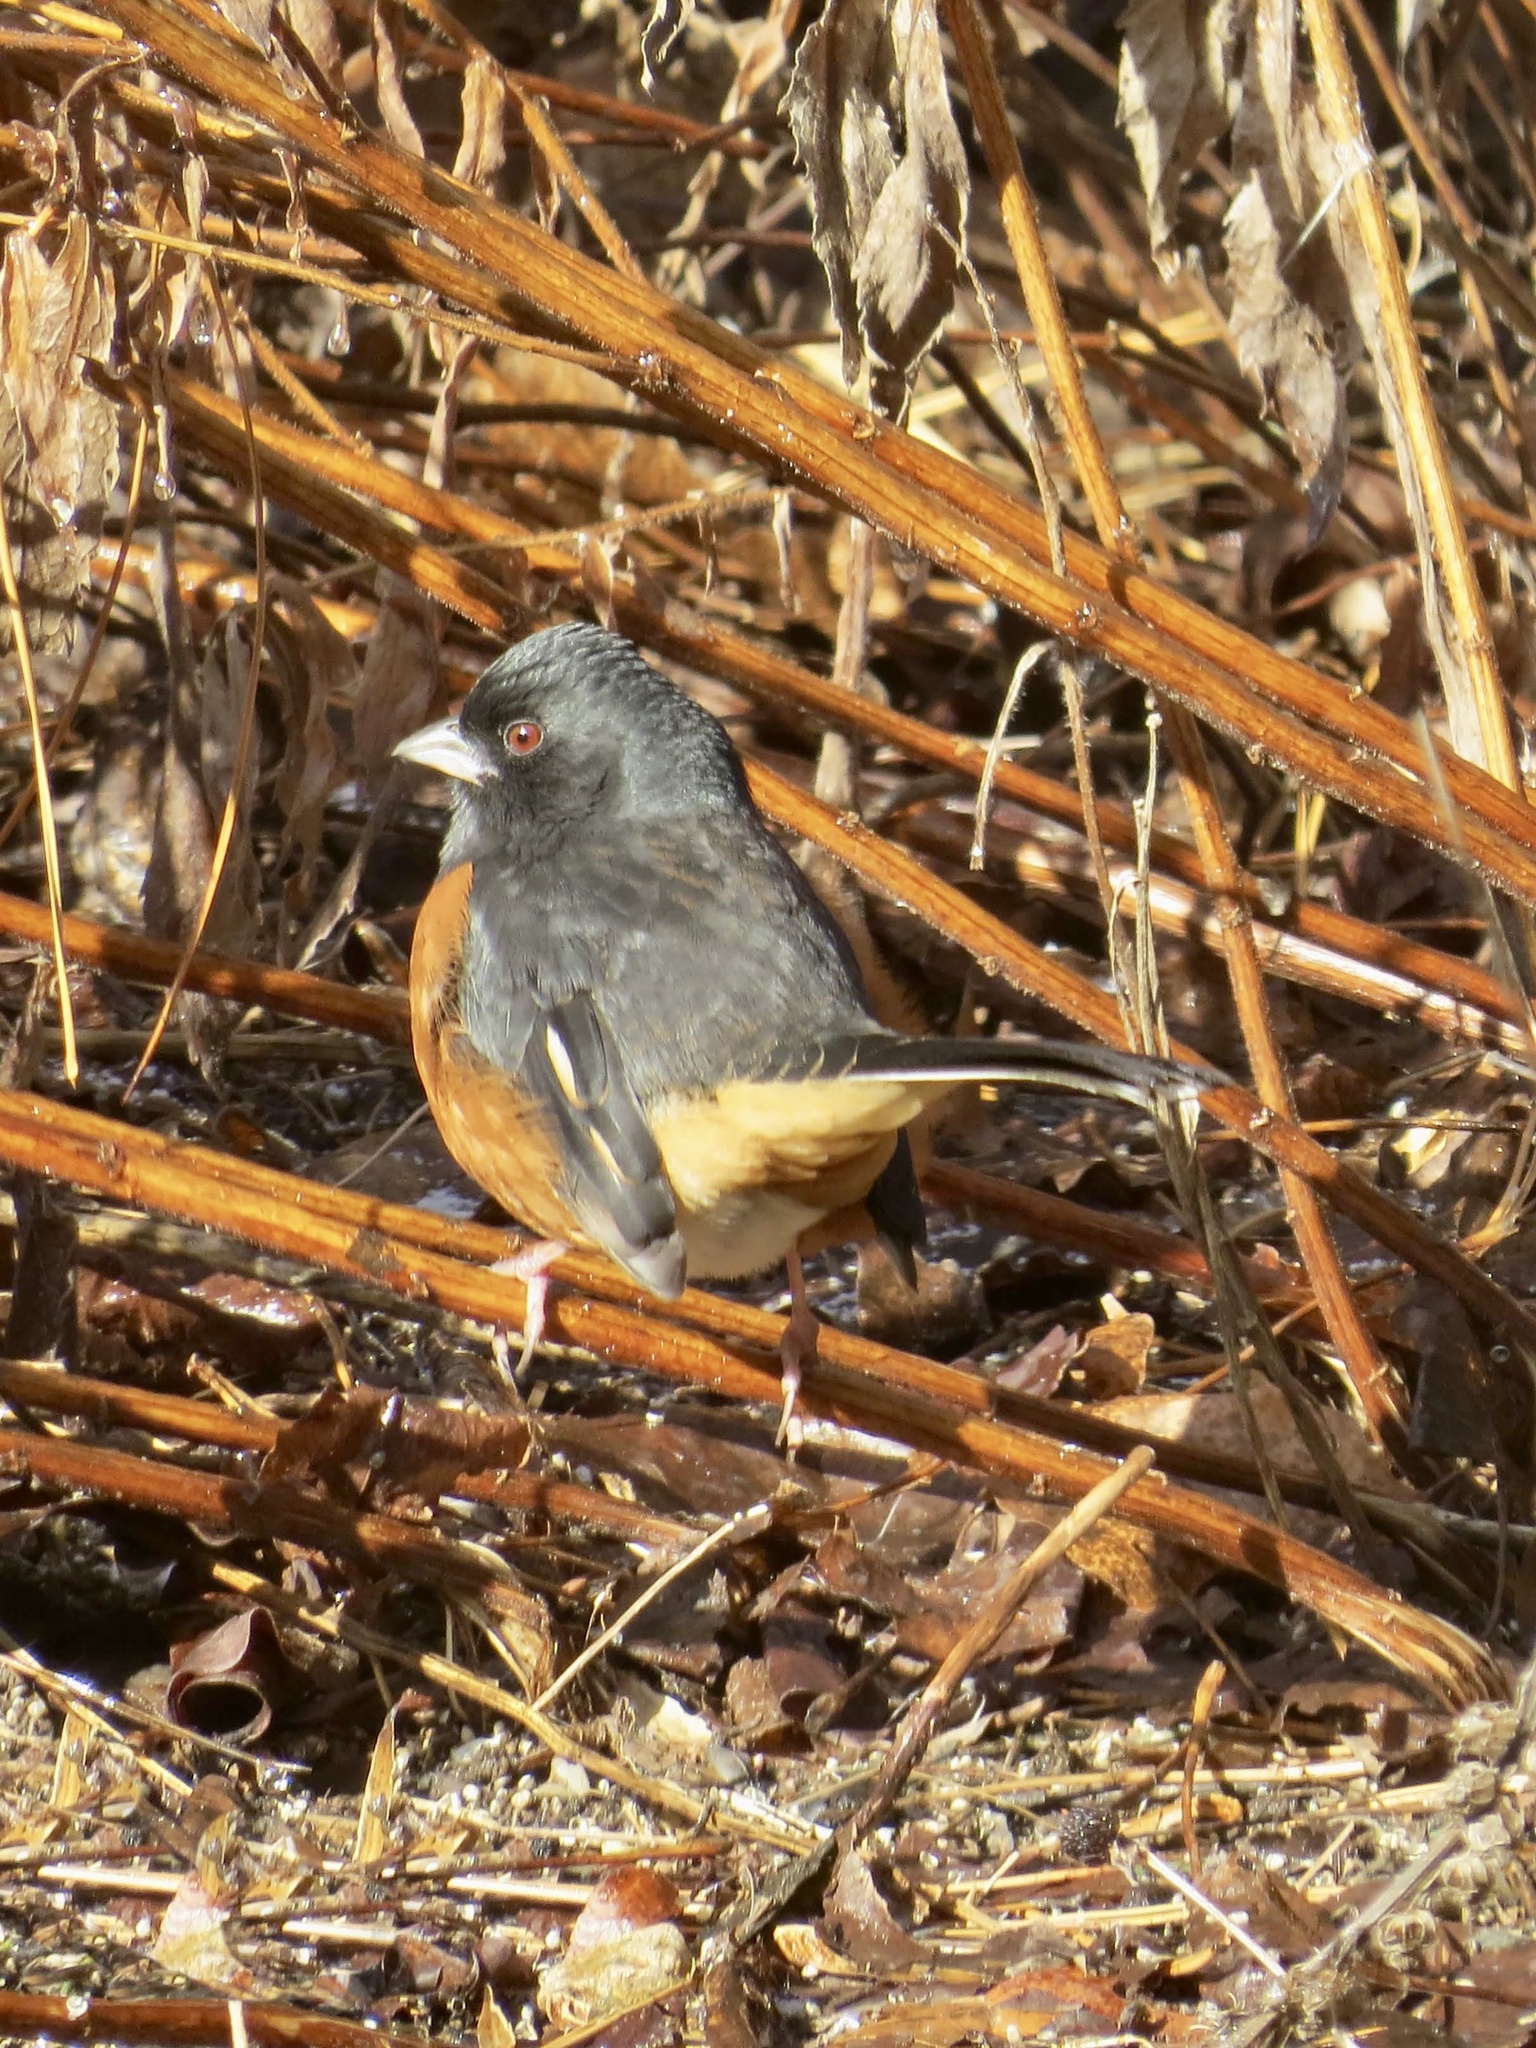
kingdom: Animalia
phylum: Chordata
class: Aves
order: Passeriformes
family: Passerellidae
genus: Pipilo
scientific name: Pipilo erythrophthalmus
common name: Eastern towhee
